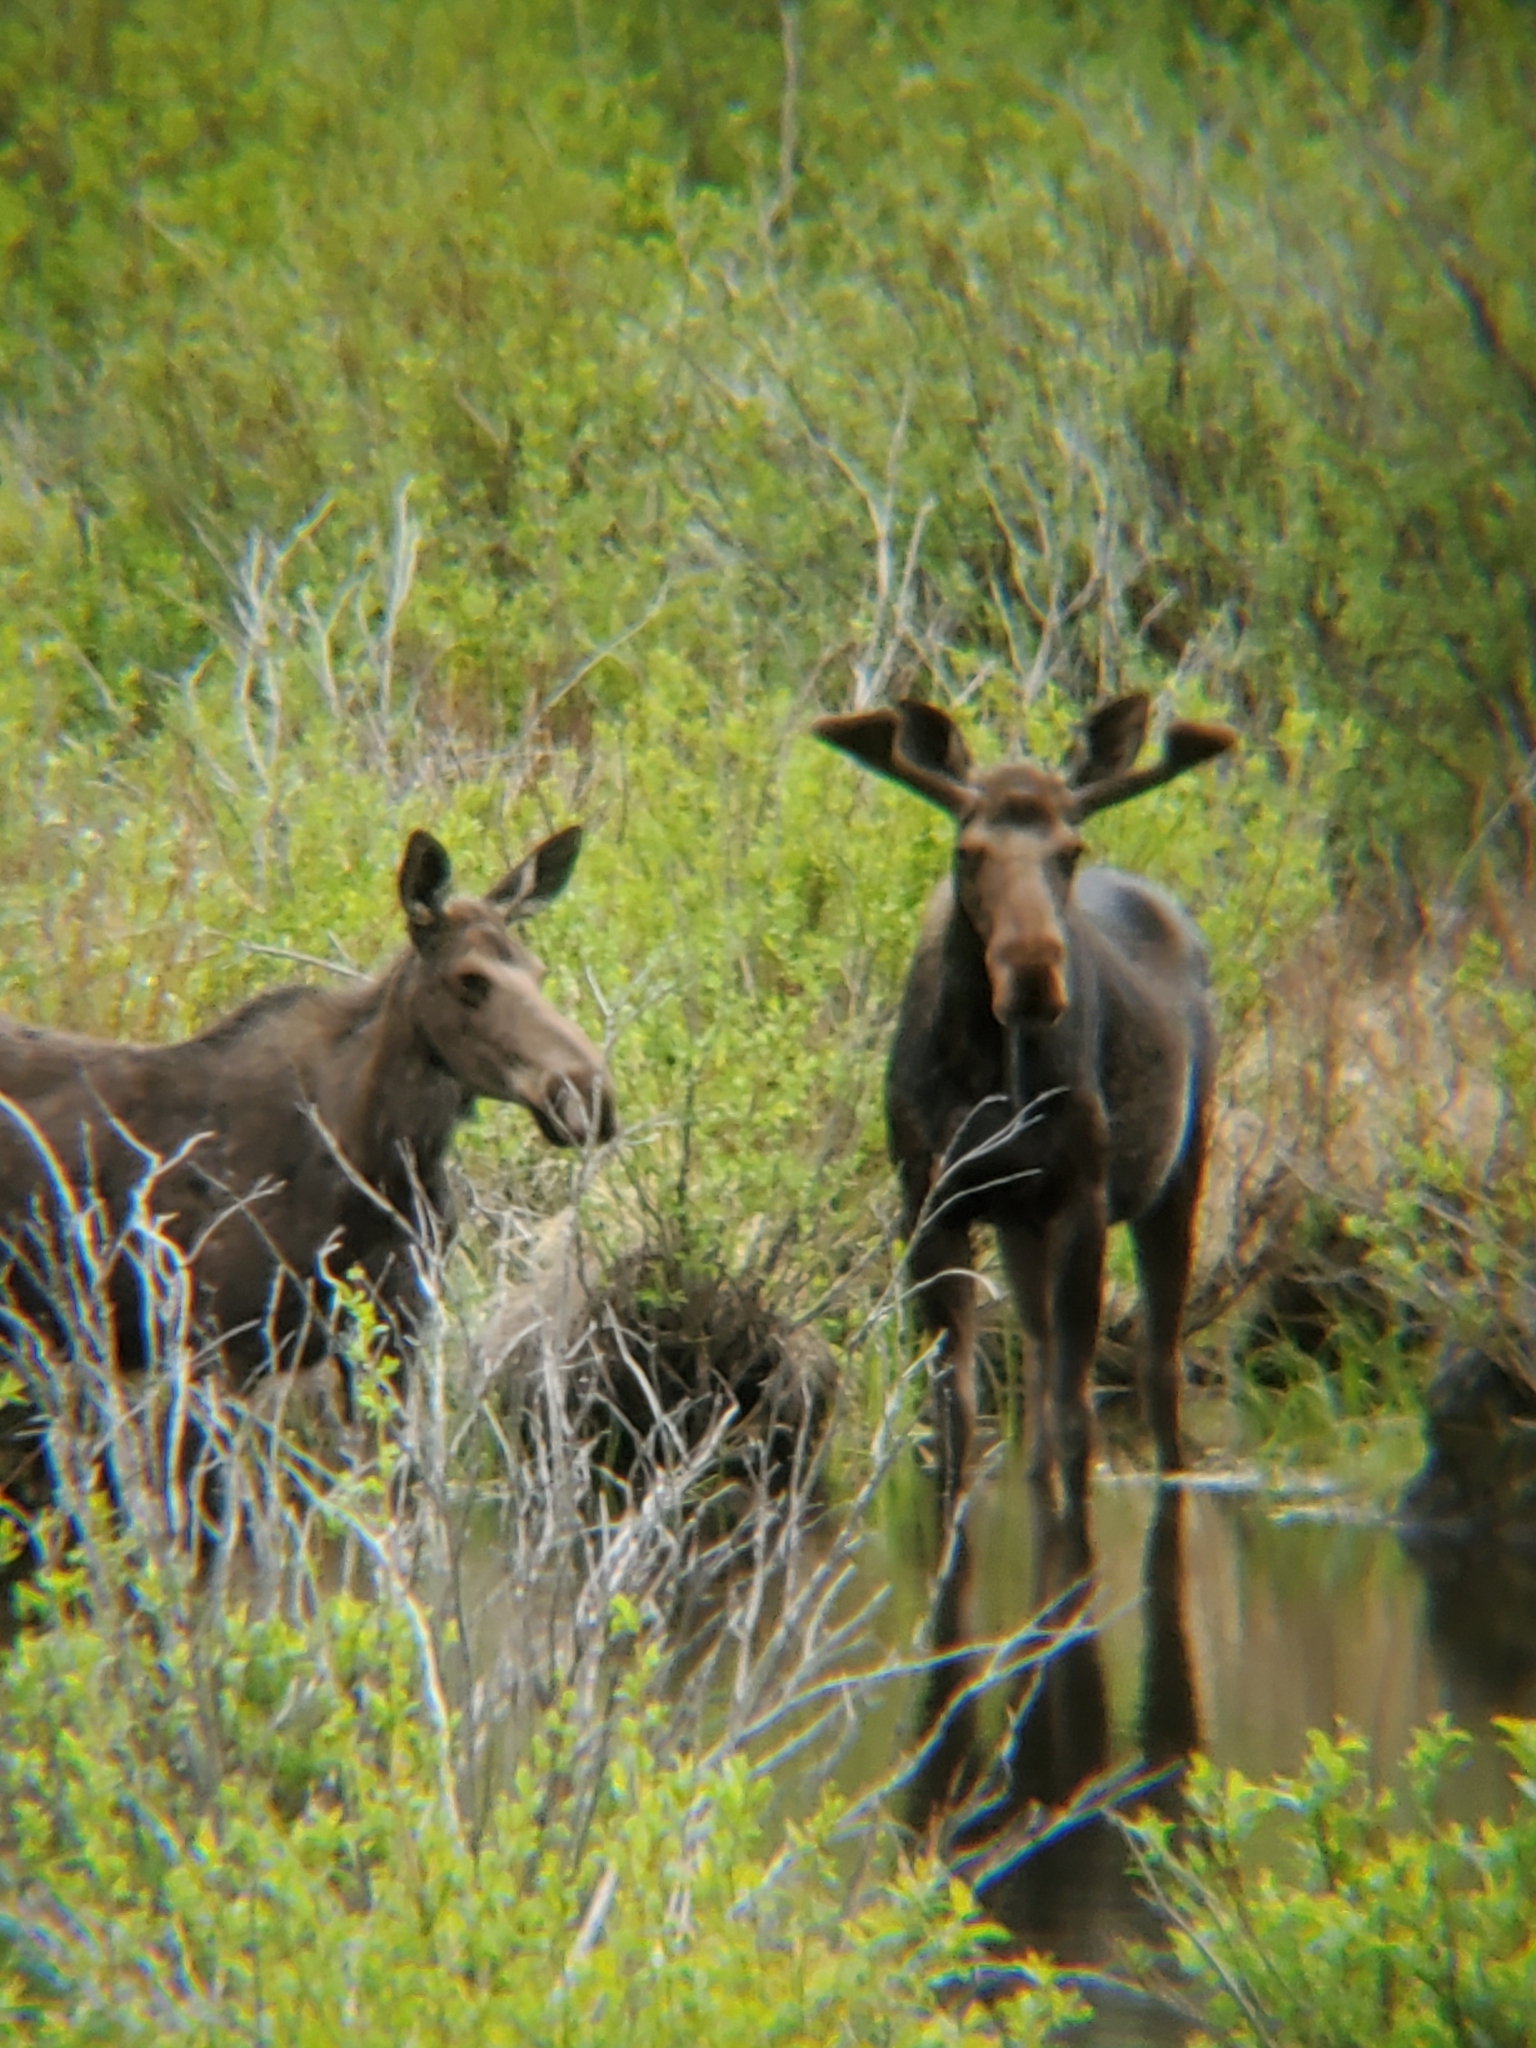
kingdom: Animalia
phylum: Chordata
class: Mammalia
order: Artiodactyla
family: Cervidae
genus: Alces
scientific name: Alces alces
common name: Moose
